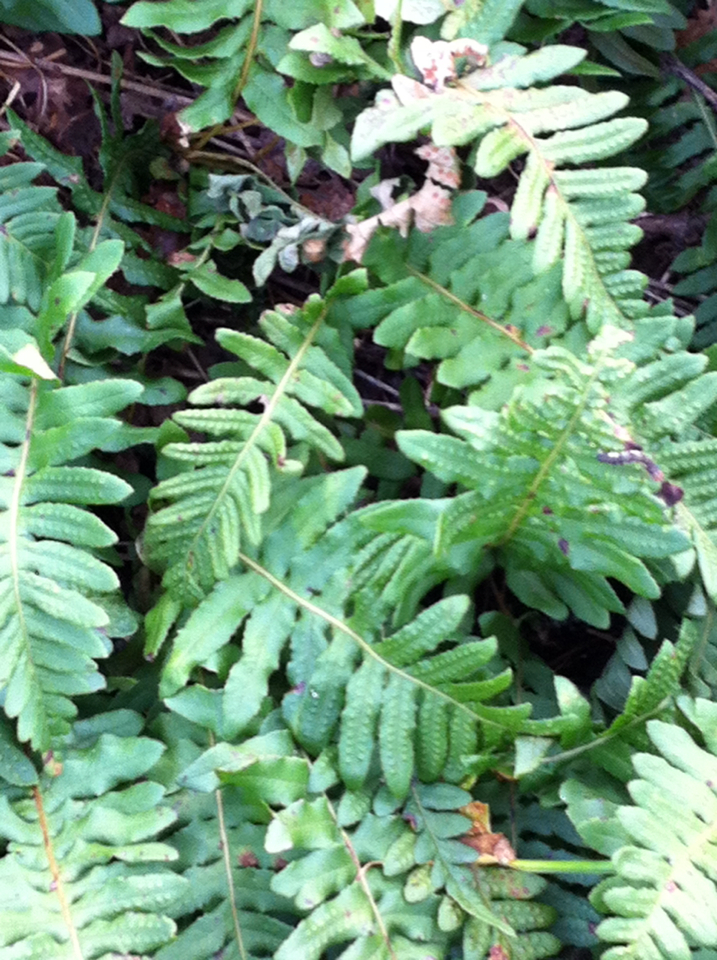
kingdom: Plantae
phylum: Tracheophyta
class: Polypodiopsida
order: Polypodiales
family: Polypodiaceae
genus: Polypodium
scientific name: Polypodium glycyrrhiza
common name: Licorice fern
